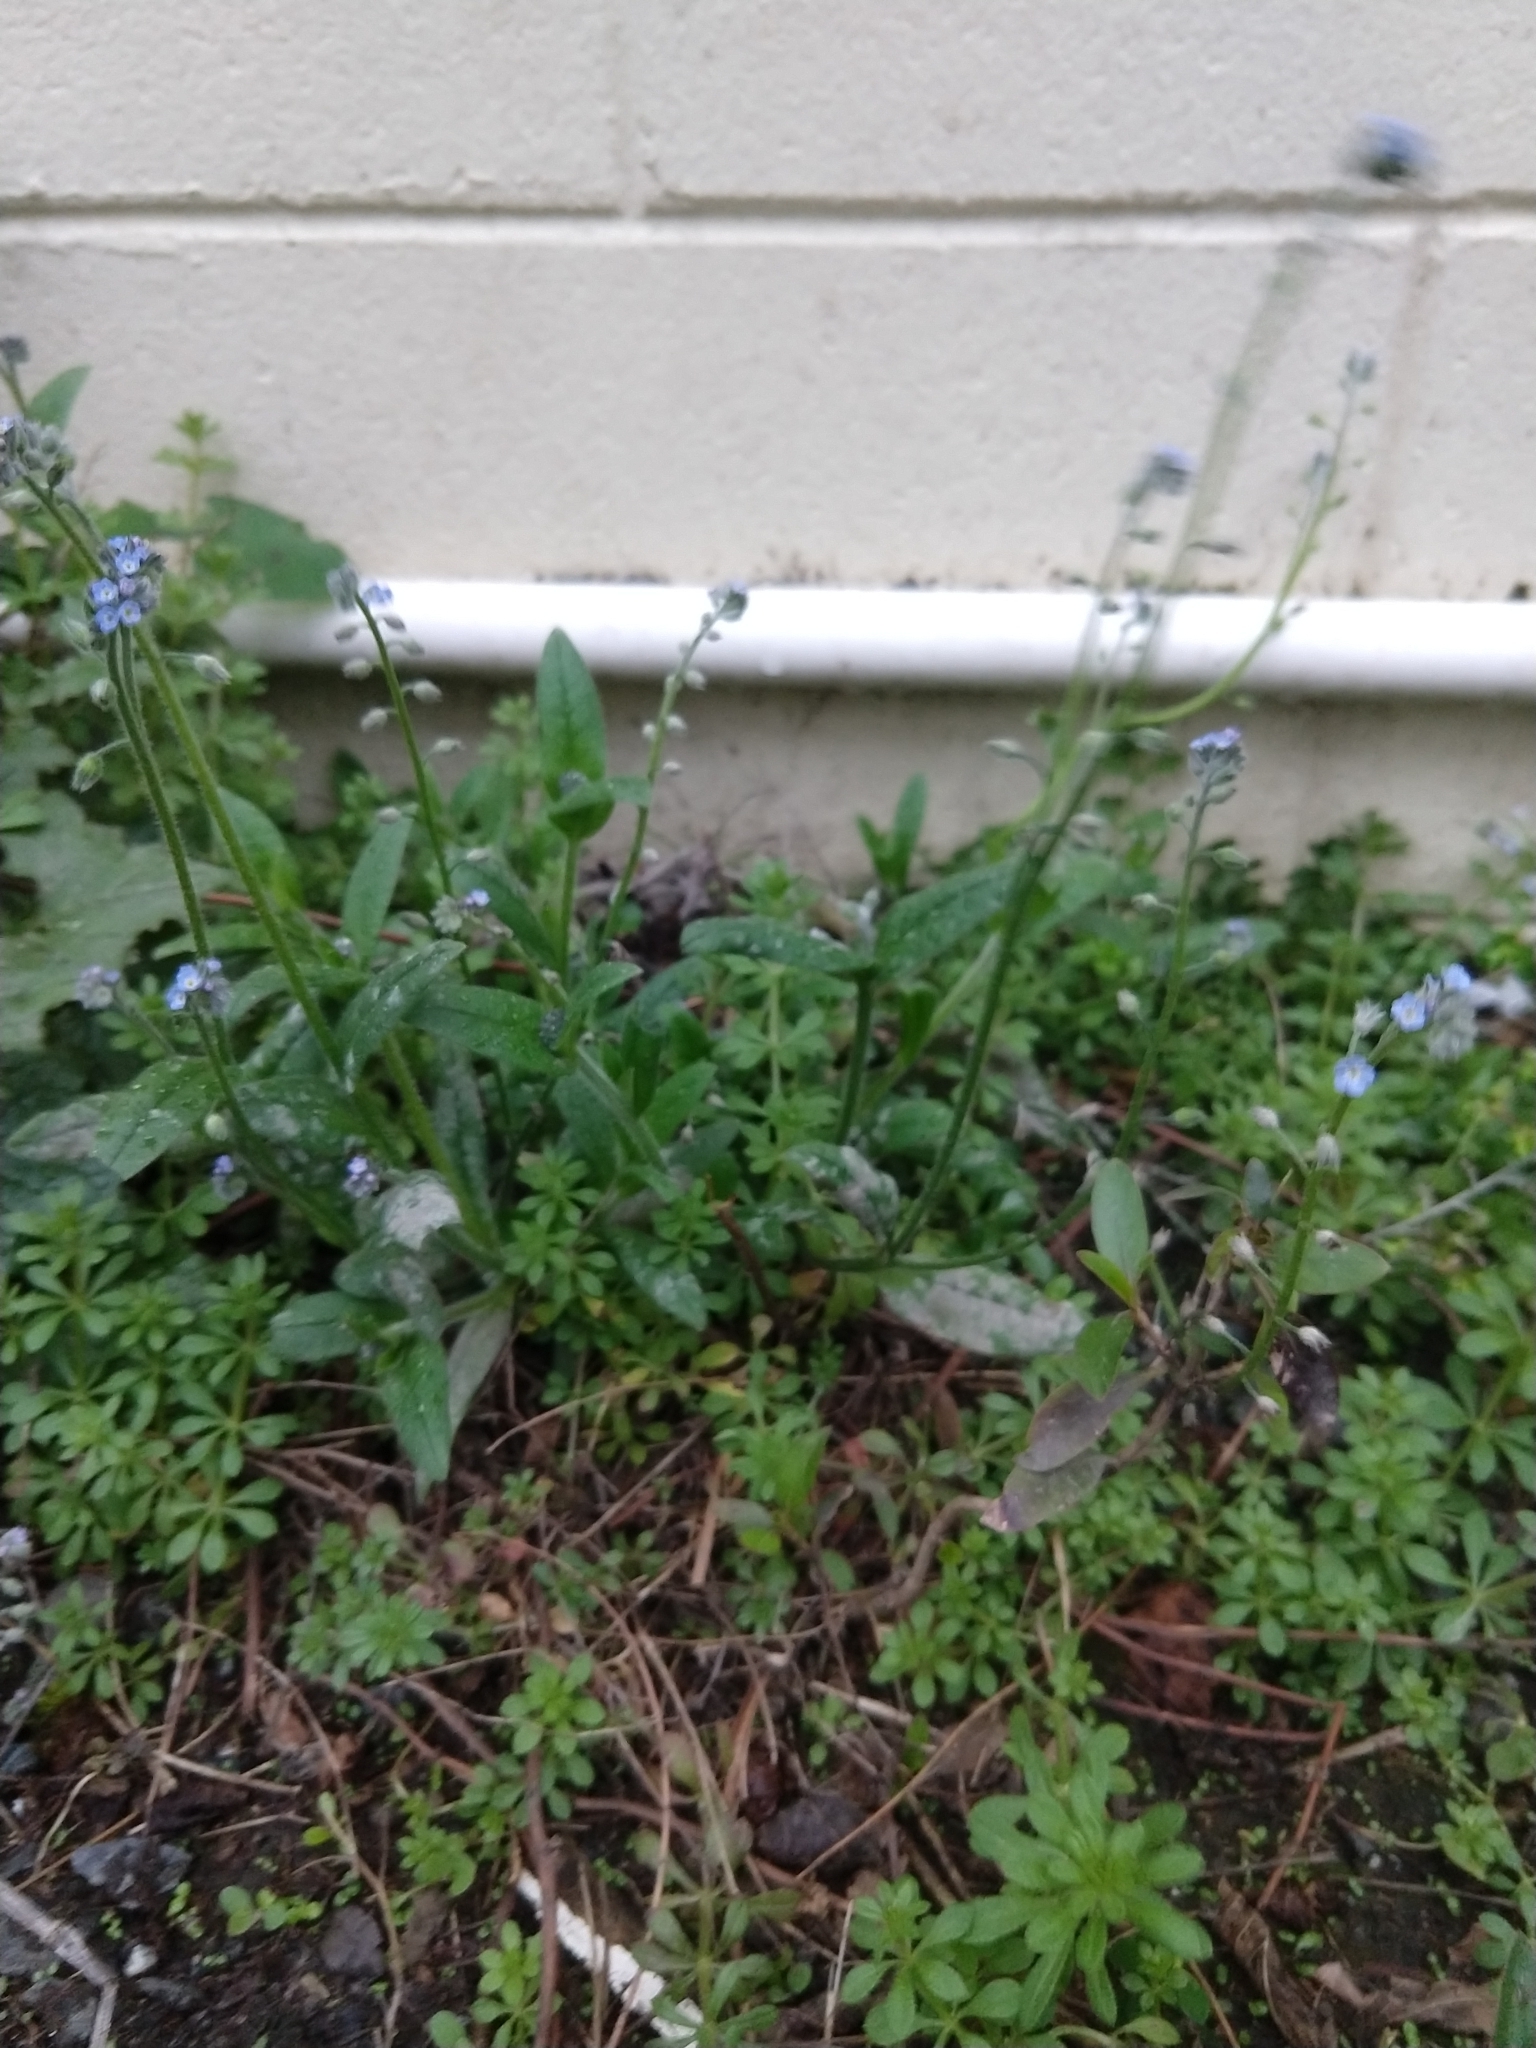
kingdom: Plantae
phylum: Tracheophyta
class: Magnoliopsida
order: Boraginales
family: Boraginaceae
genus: Myosotis
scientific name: Myosotis arvensis
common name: Field forget-me-not
